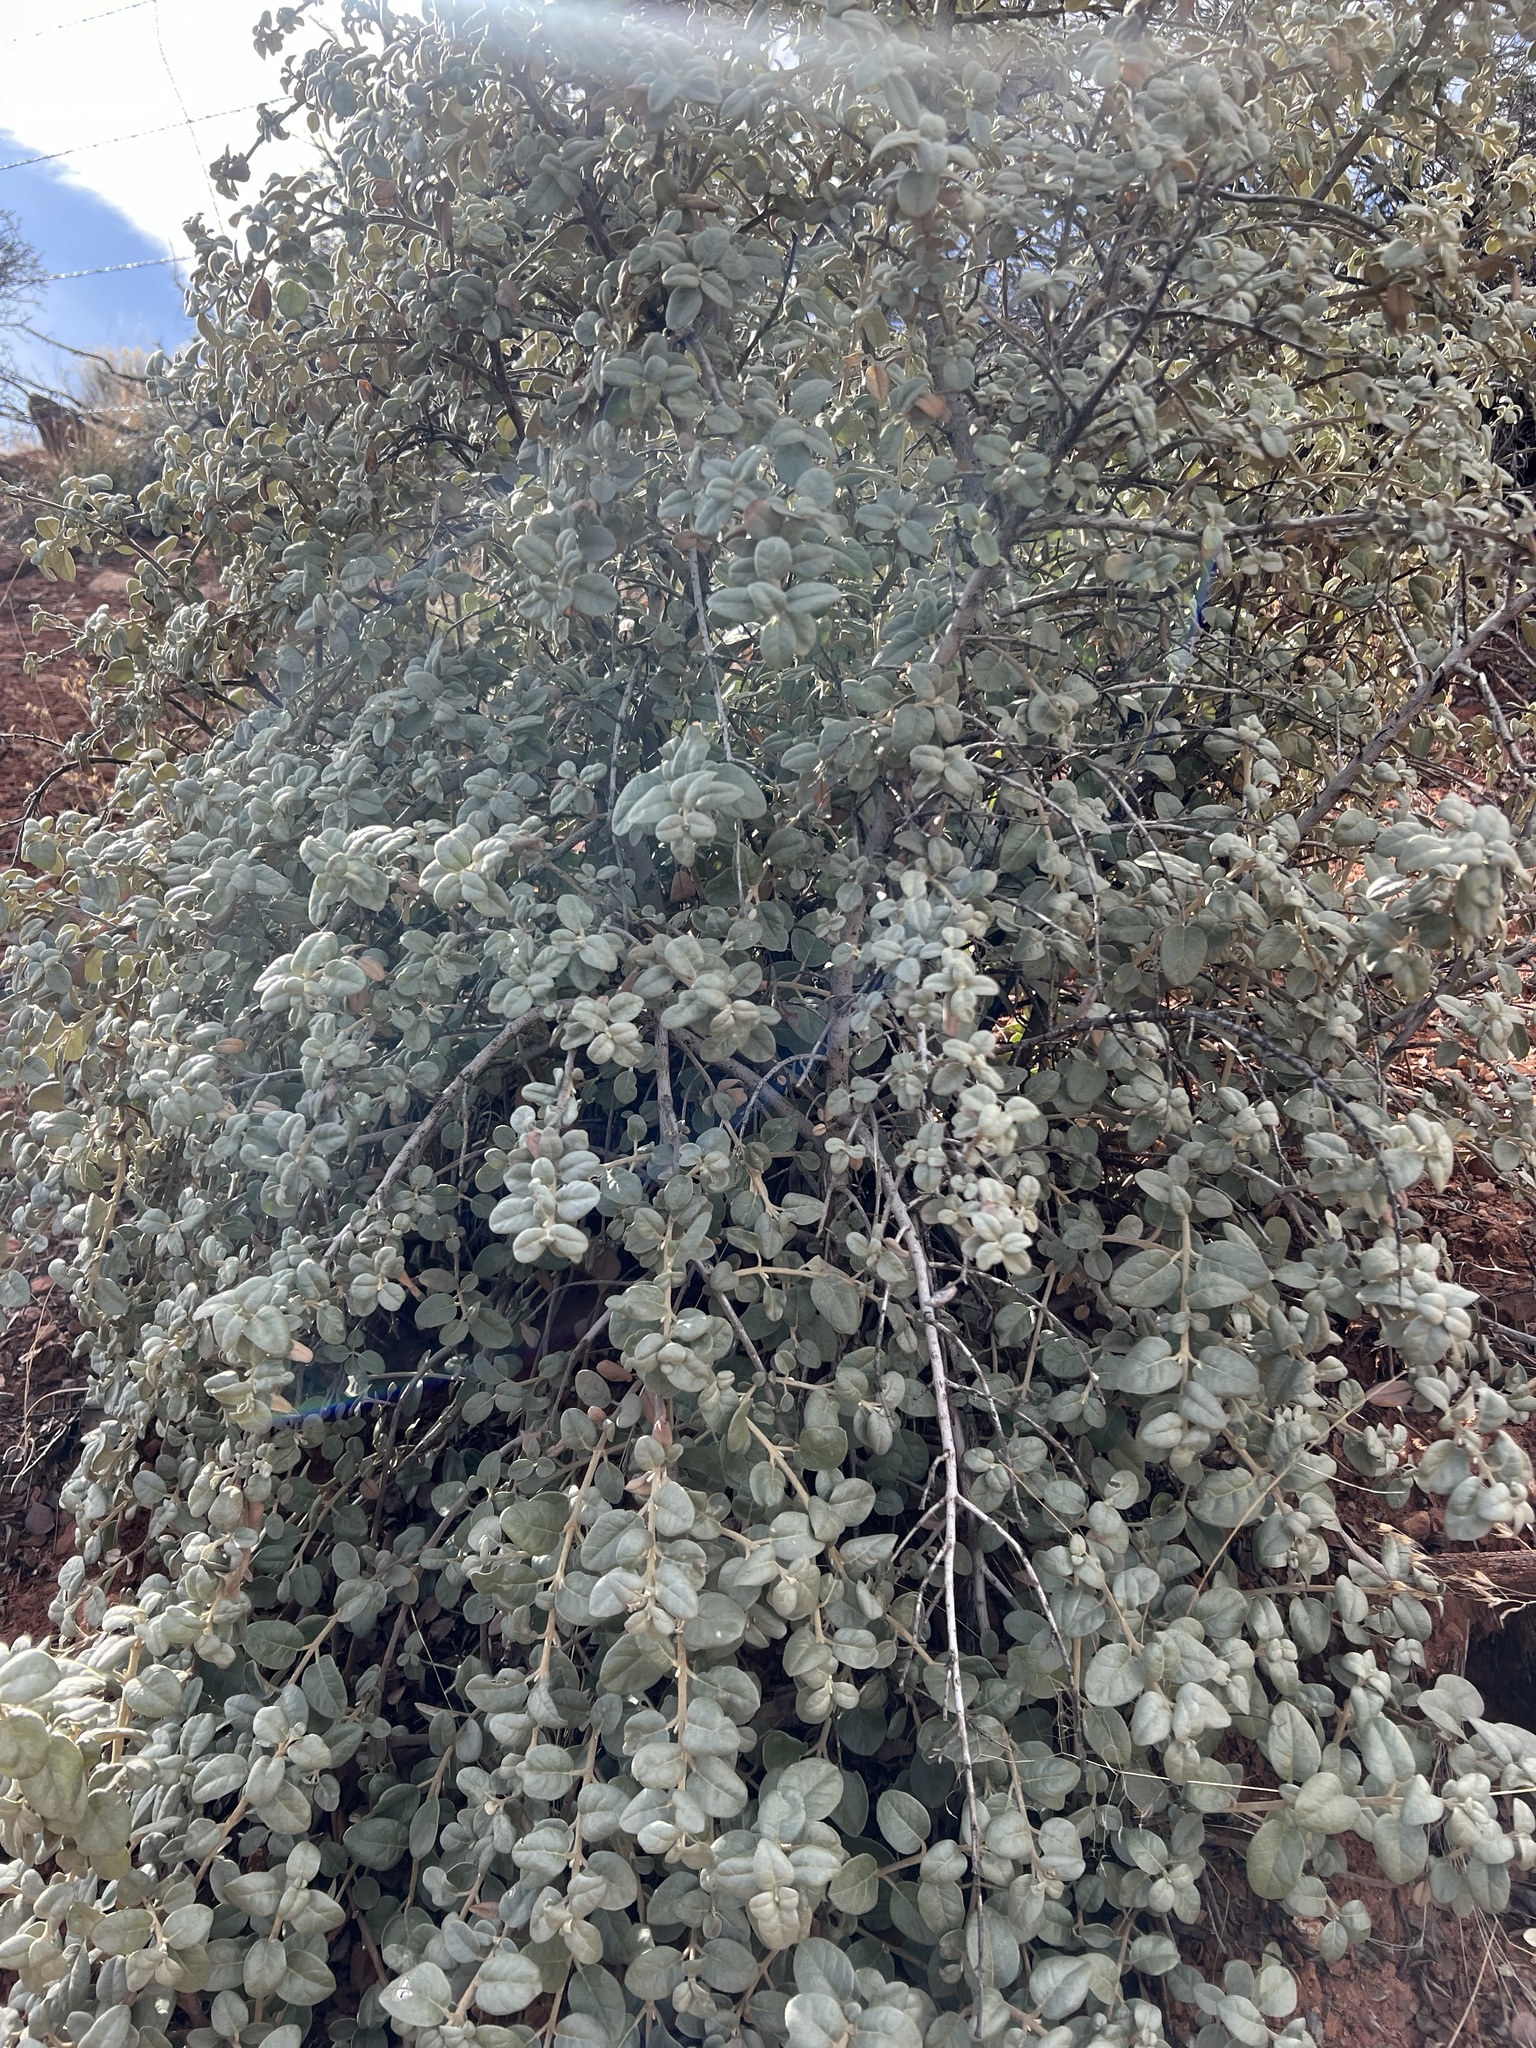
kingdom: Plantae
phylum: Tracheophyta
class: Magnoliopsida
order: Rosales
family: Elaeagnaceae
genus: Shepherdia
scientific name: Shepherdia rotundifolia
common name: Silverscale
